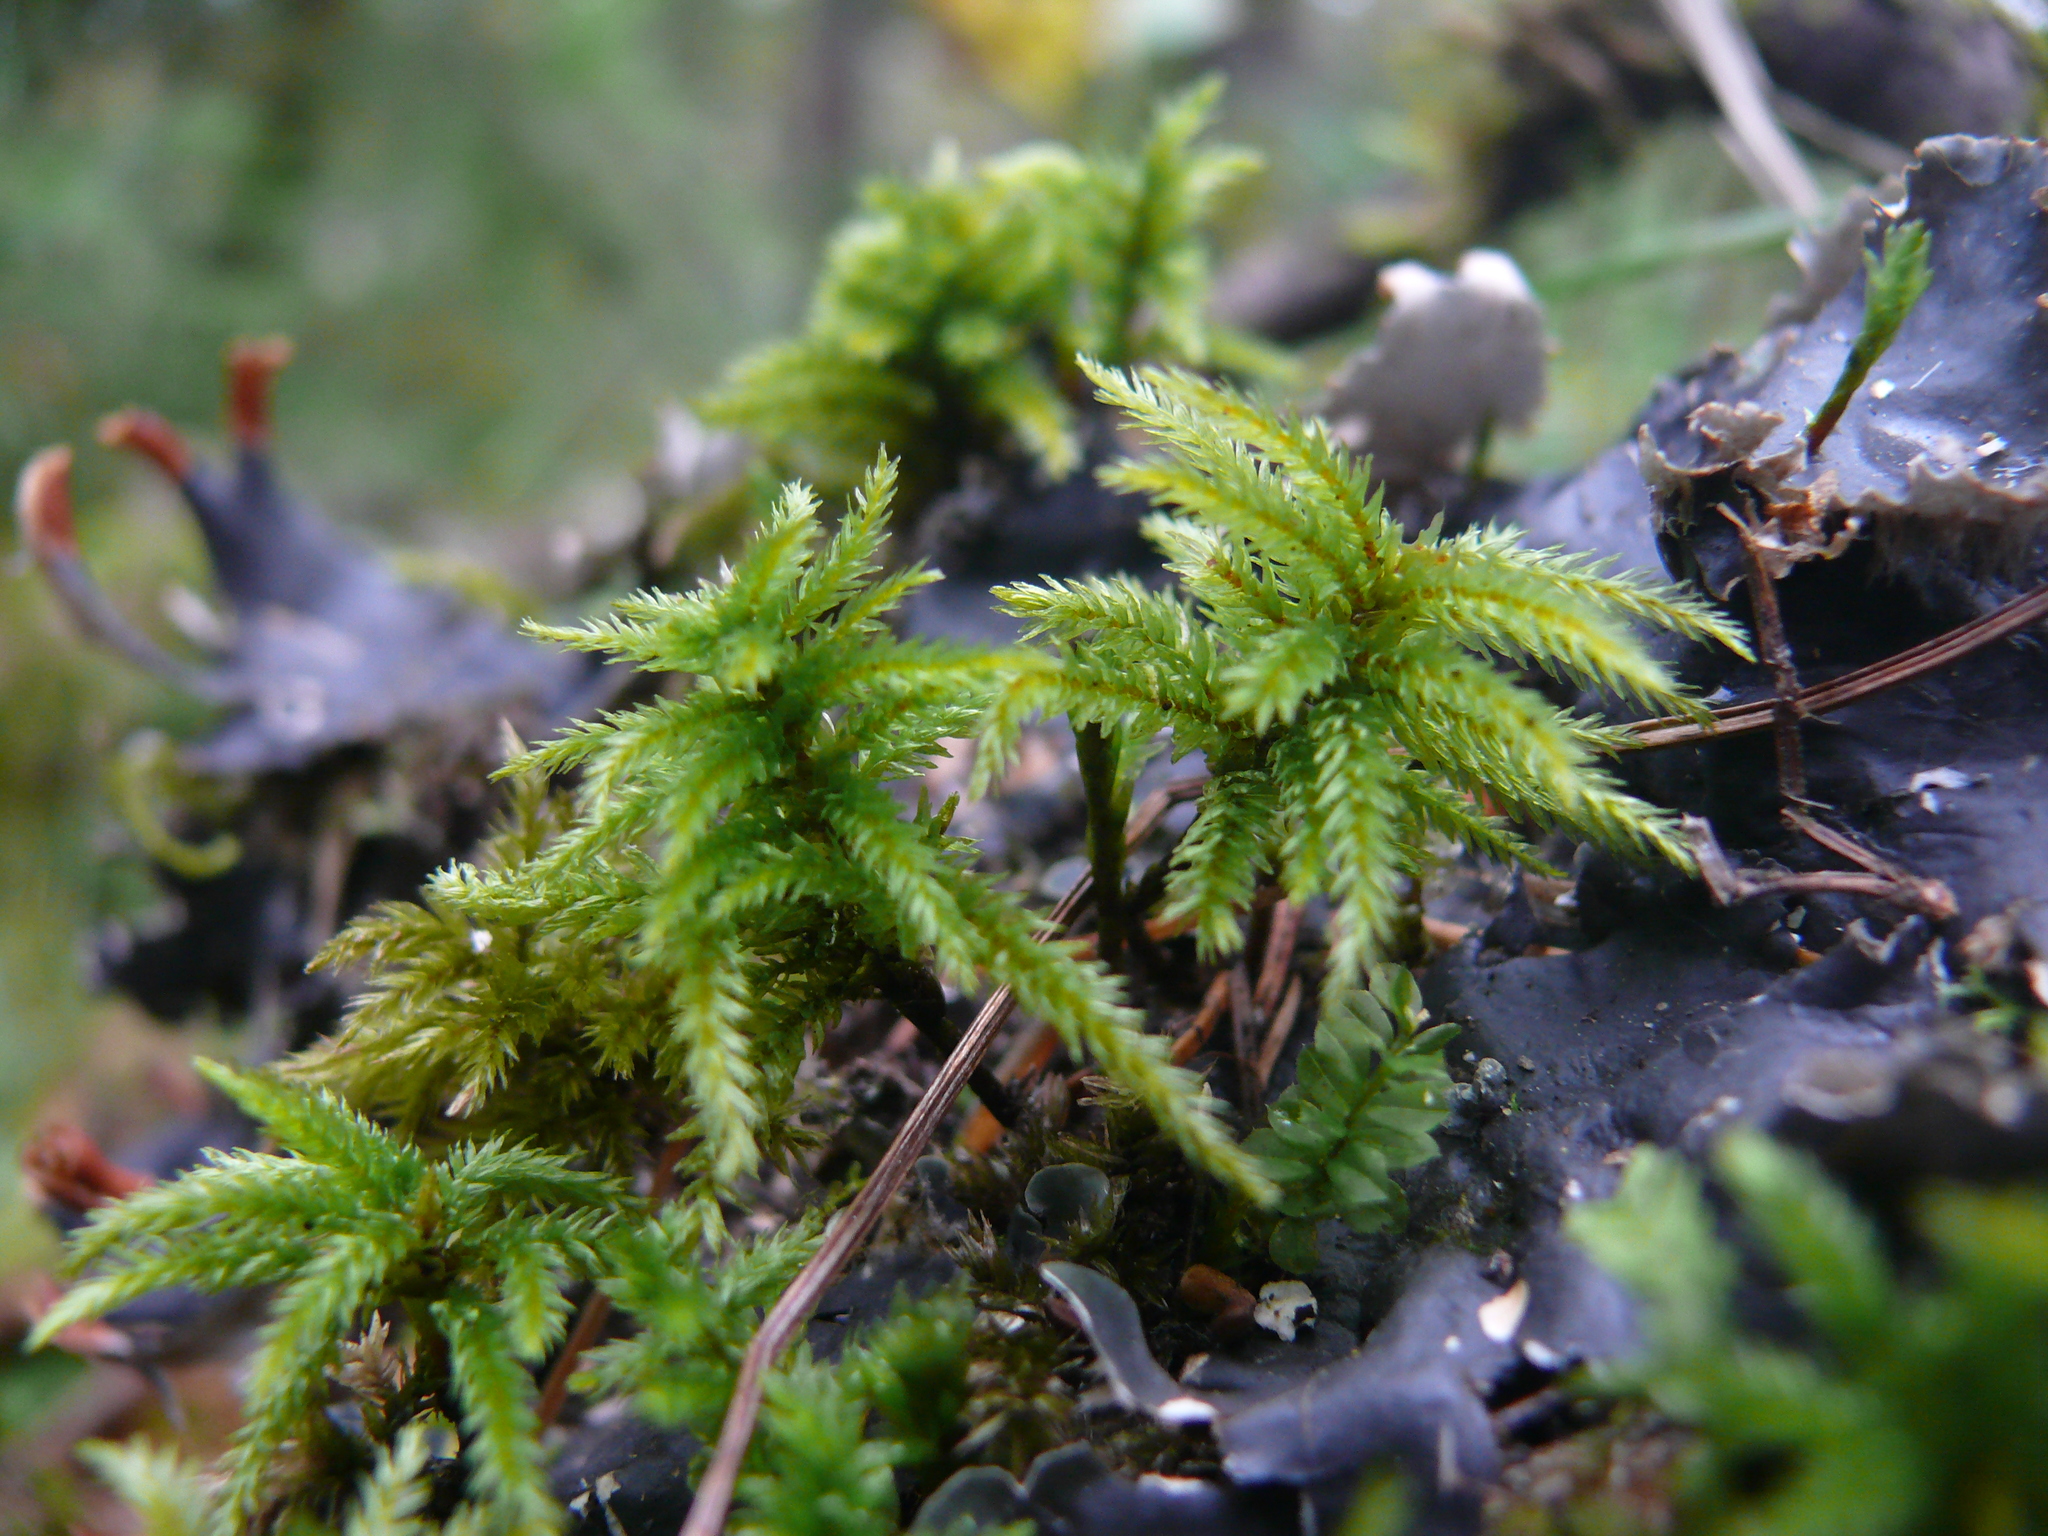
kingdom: Plantae
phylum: Bryophyta
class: Bryopsida
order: Hypnales
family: Climaciaceae
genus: Climacium
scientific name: Climacium dendroides
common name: Northern tree moss
